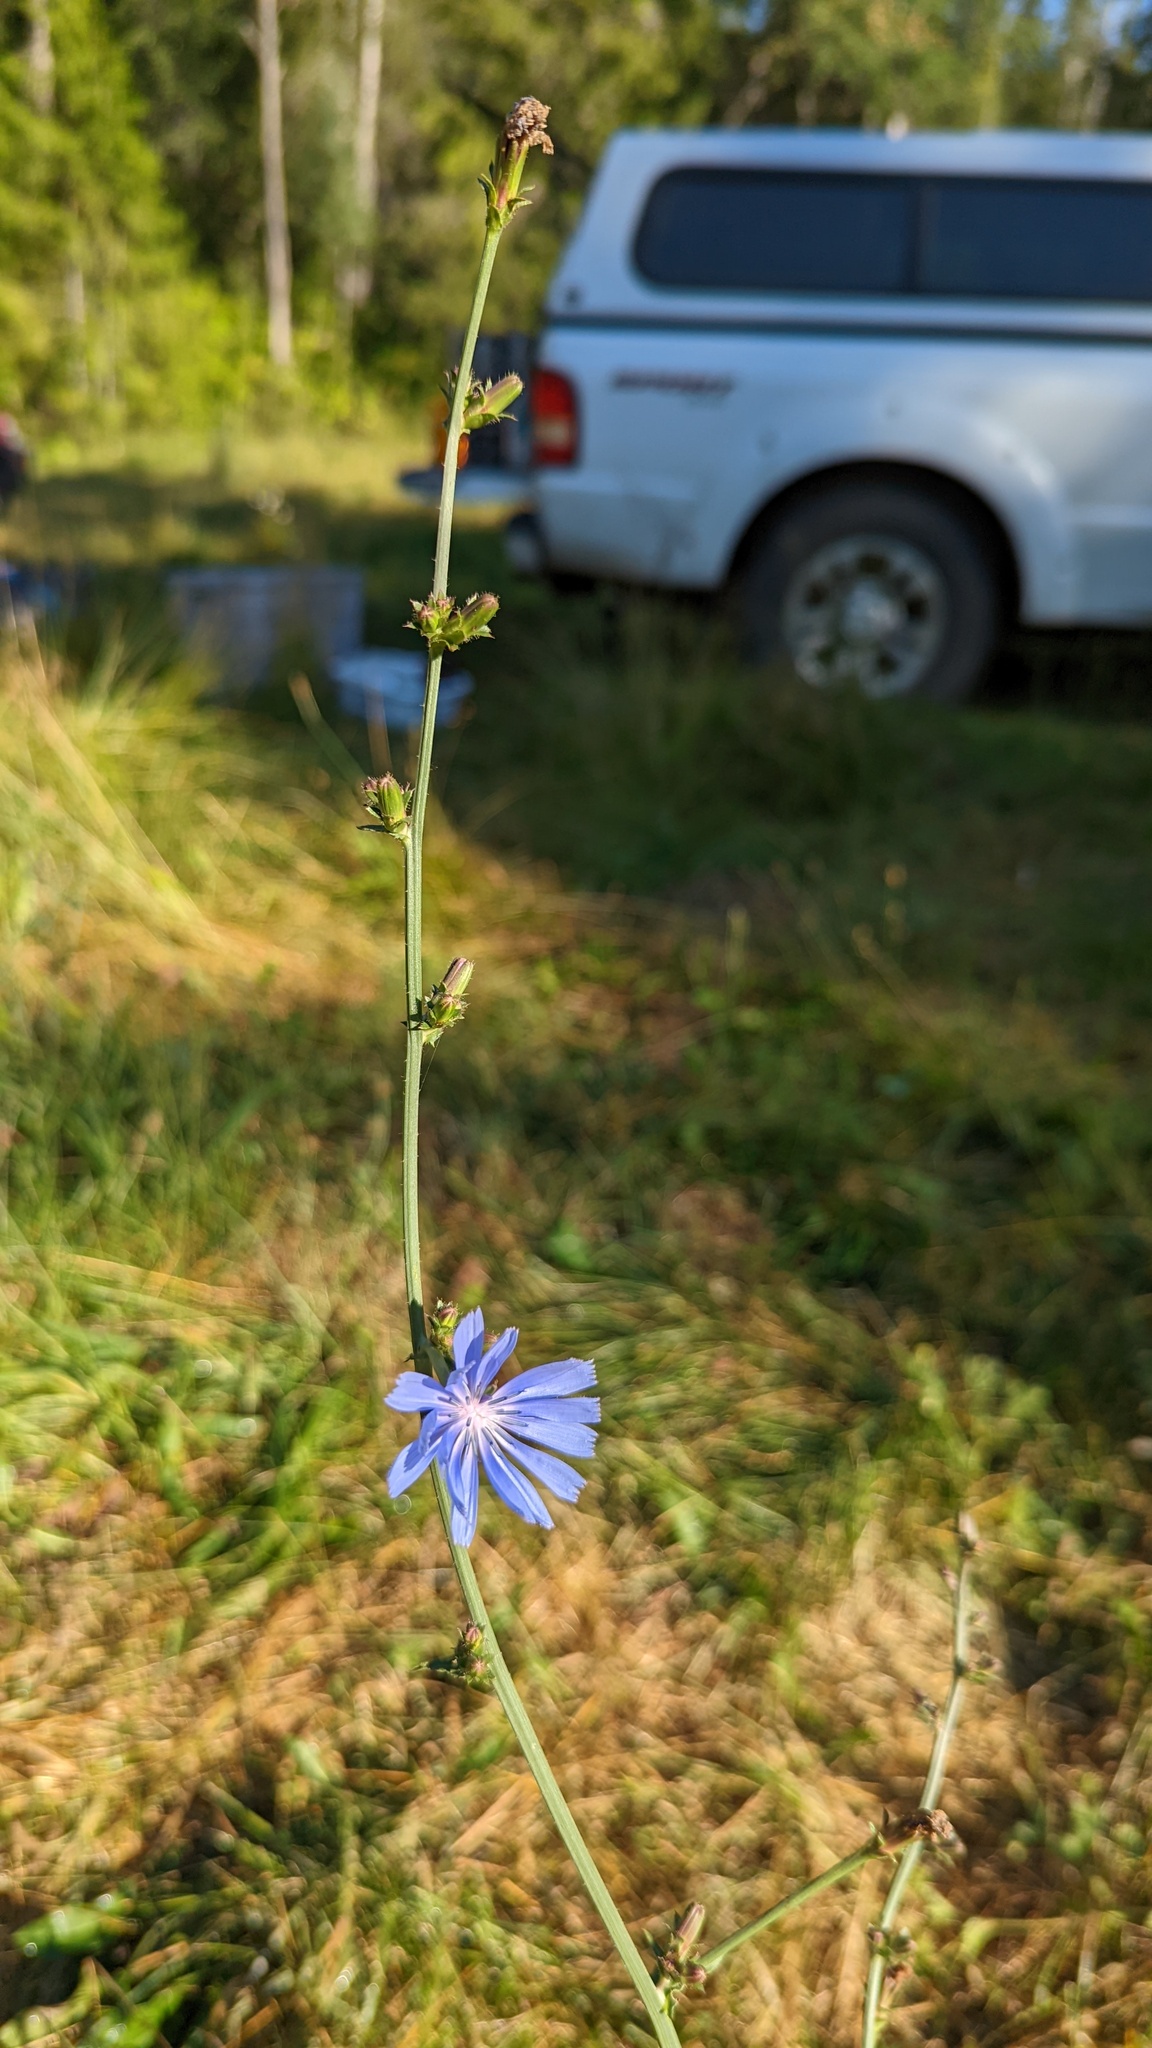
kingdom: Plantae
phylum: Tracheophyta
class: Magnoliopsida
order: Asterales
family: Asteraceae
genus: Cichorium
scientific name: Cichorium intybus
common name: Chicory
